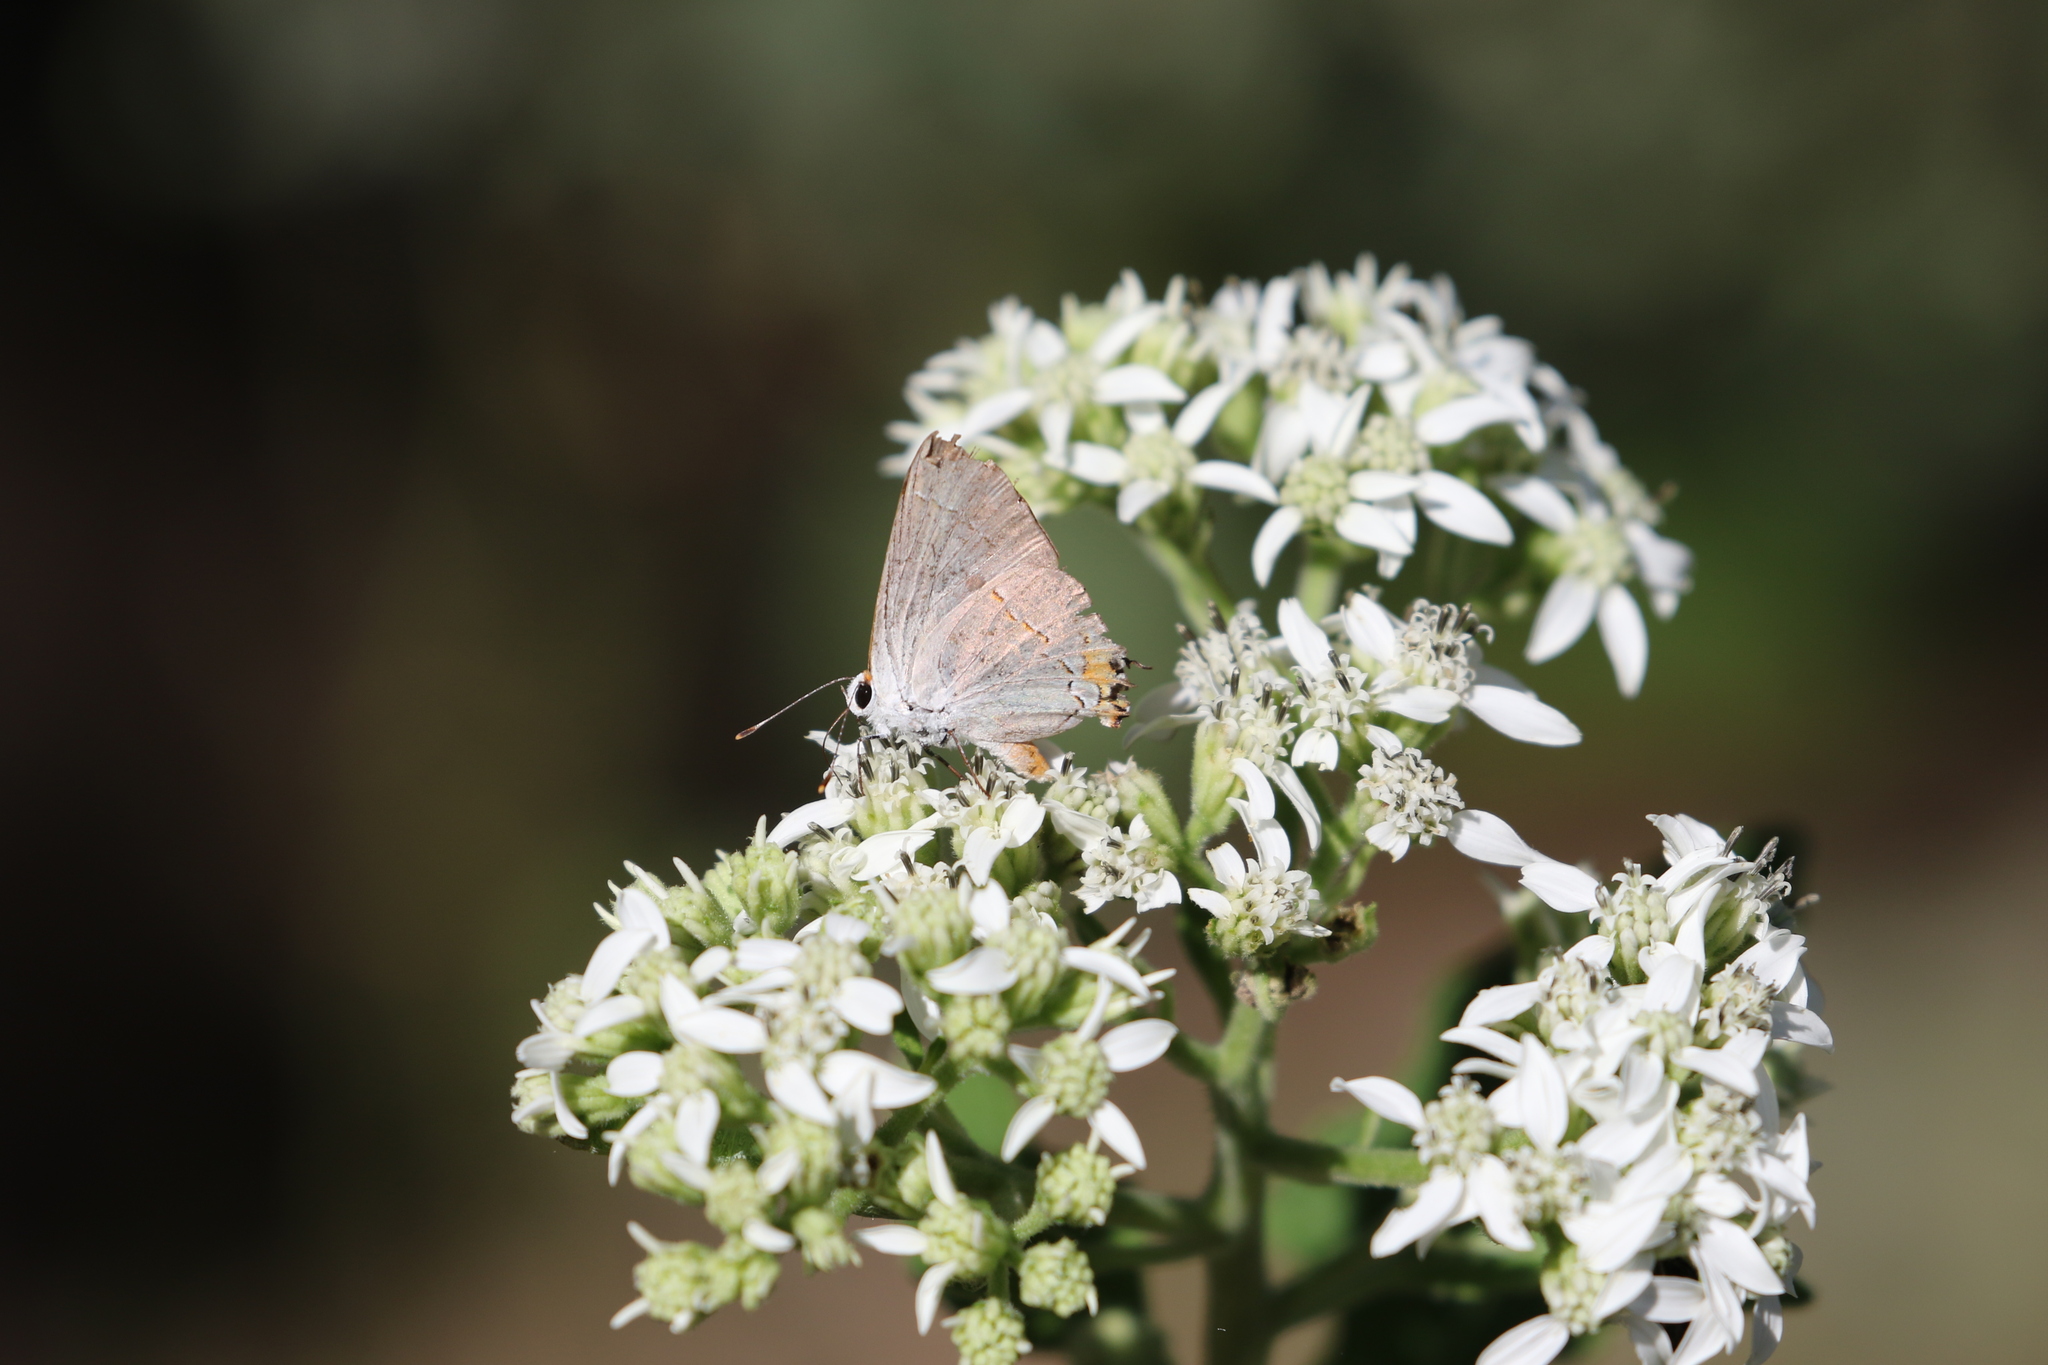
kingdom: Animalia
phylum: Arthropoda
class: Insecta
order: Lepidoptera
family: Lycaenidae
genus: Strymon
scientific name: Strymon melinus
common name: Gray hairstreak
